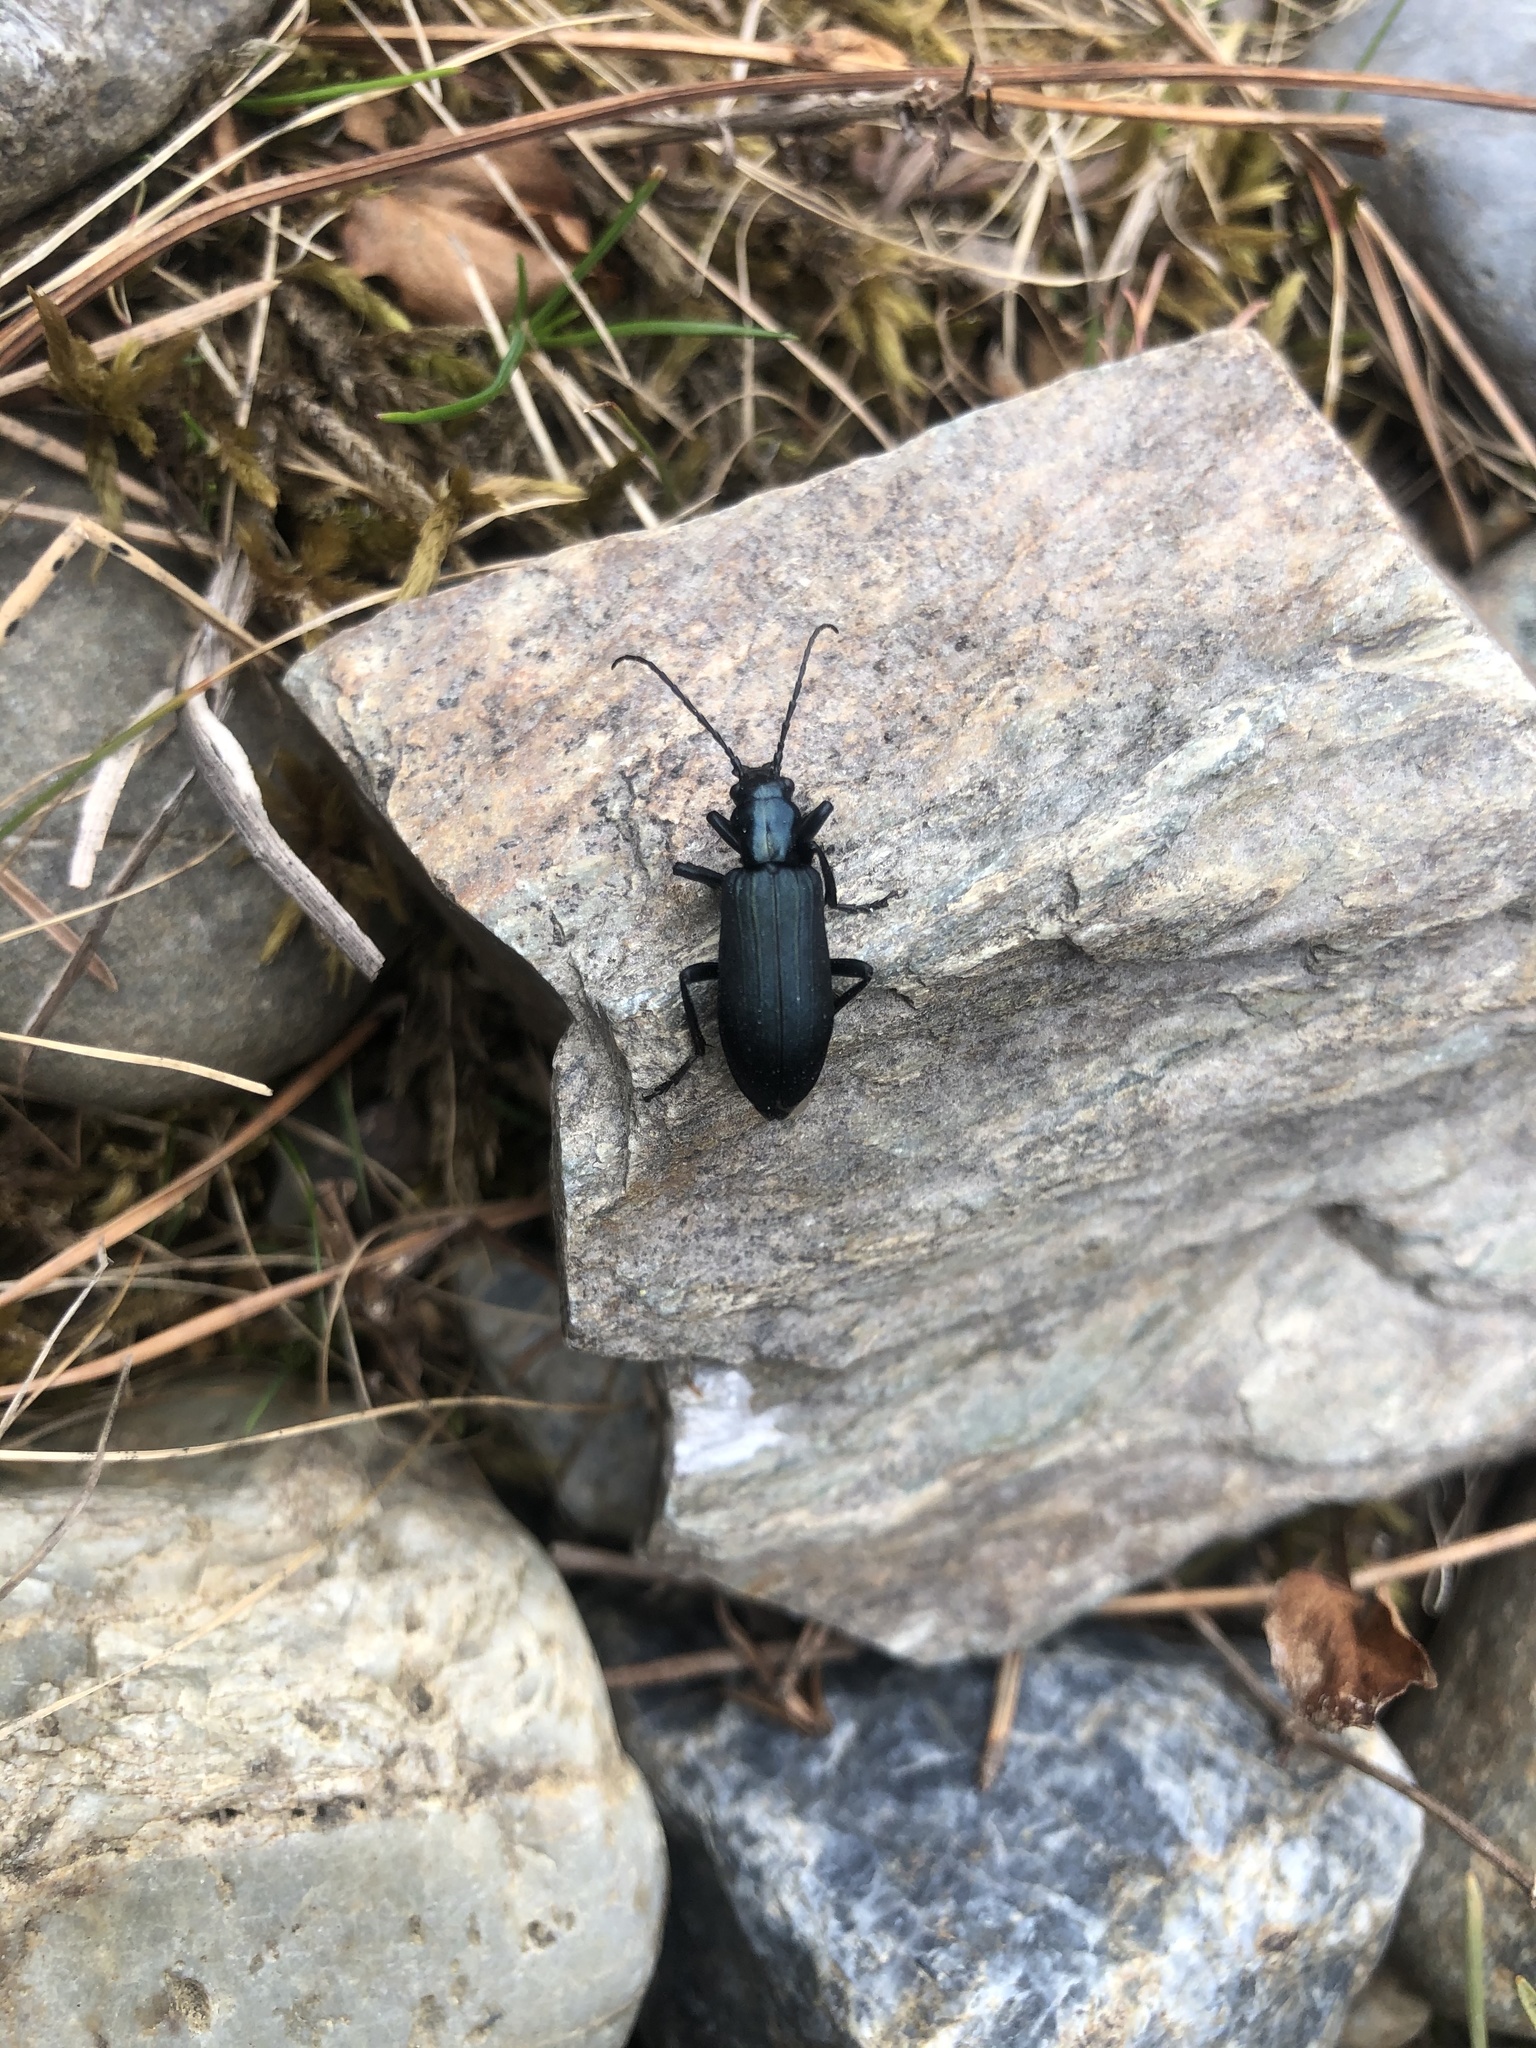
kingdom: Animalia
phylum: Arthropoda
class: Insecta
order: Coleoptera
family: Oedemeridae
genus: Ditylus
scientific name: Ditylus laevis
